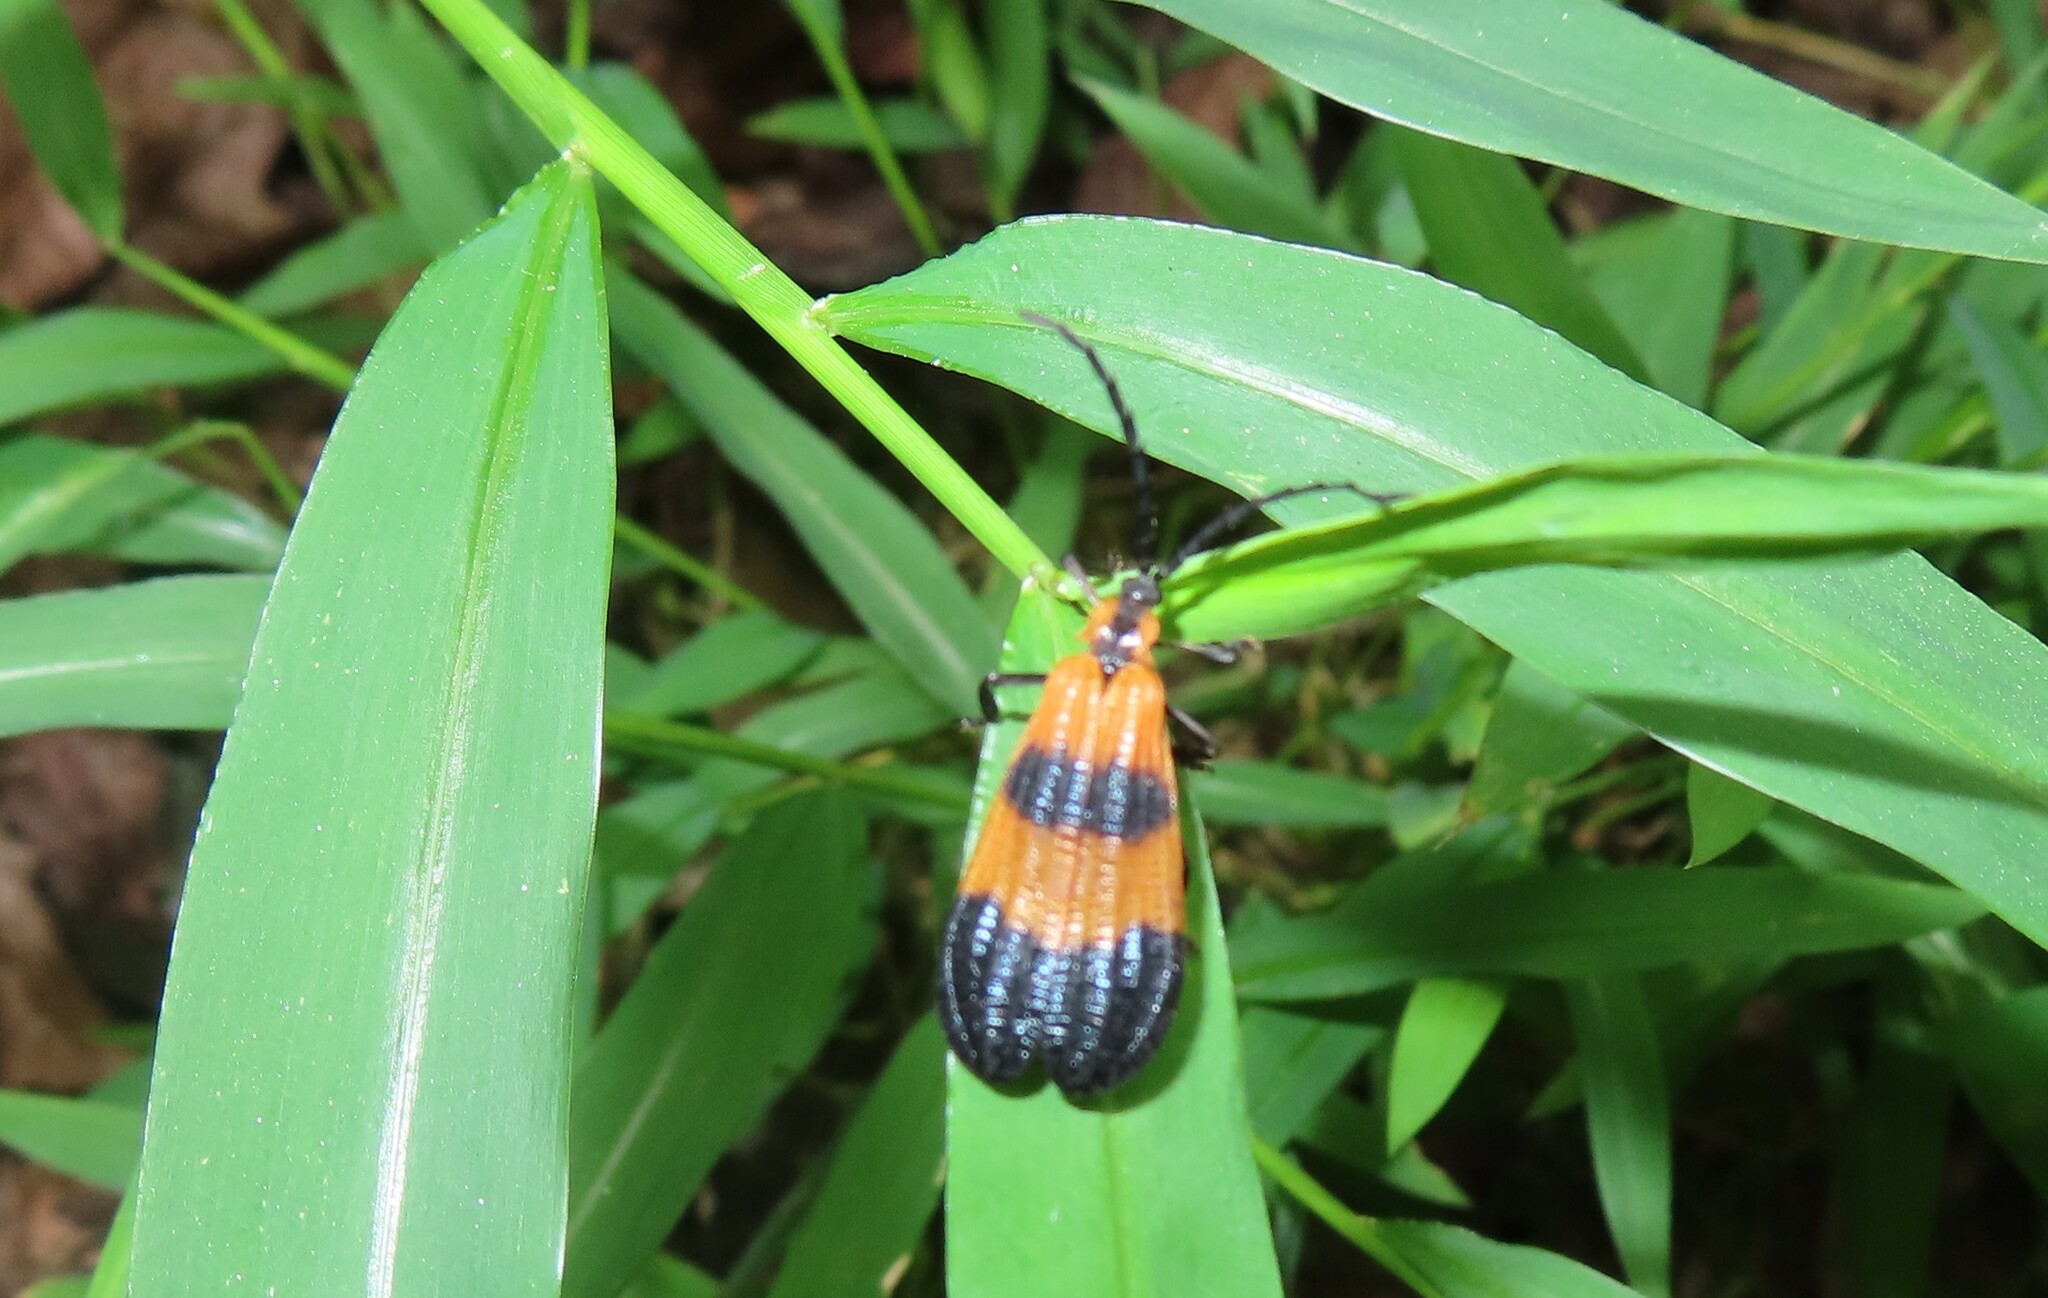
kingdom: Animalia
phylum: Arthropoda
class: Insecta
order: Coleoptera
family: Lycidae
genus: Calopteron
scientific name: Calopteron terminale
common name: End band net-winged beetle
